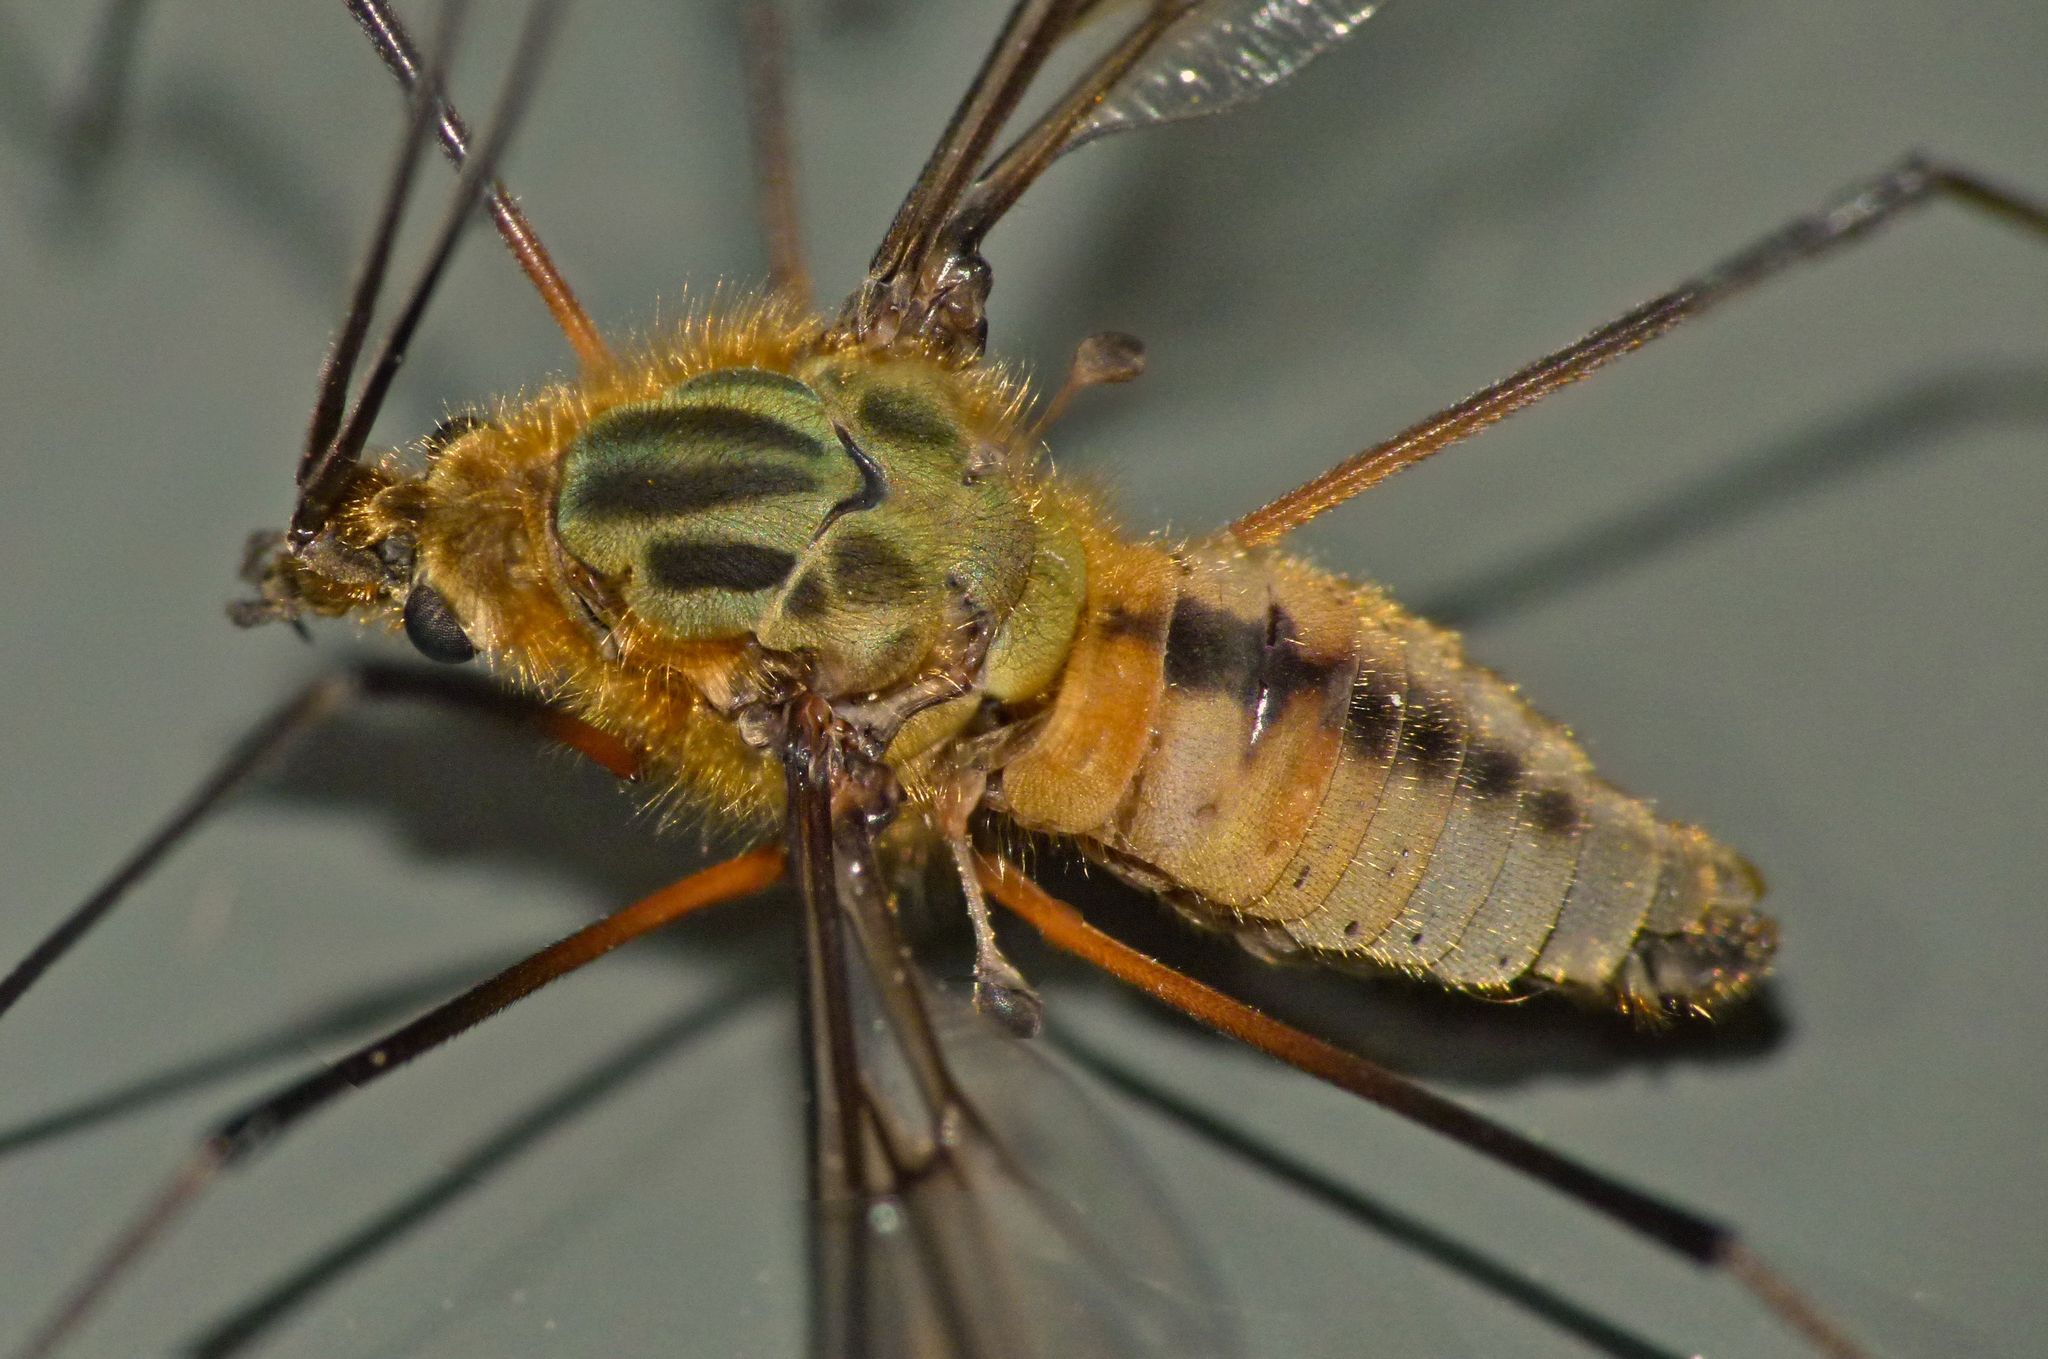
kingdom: Animalia
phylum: Arthropoda
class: Insecta
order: Diptera
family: Tipulidae
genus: Leptotarsus
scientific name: Leptotarsus vulpinus
